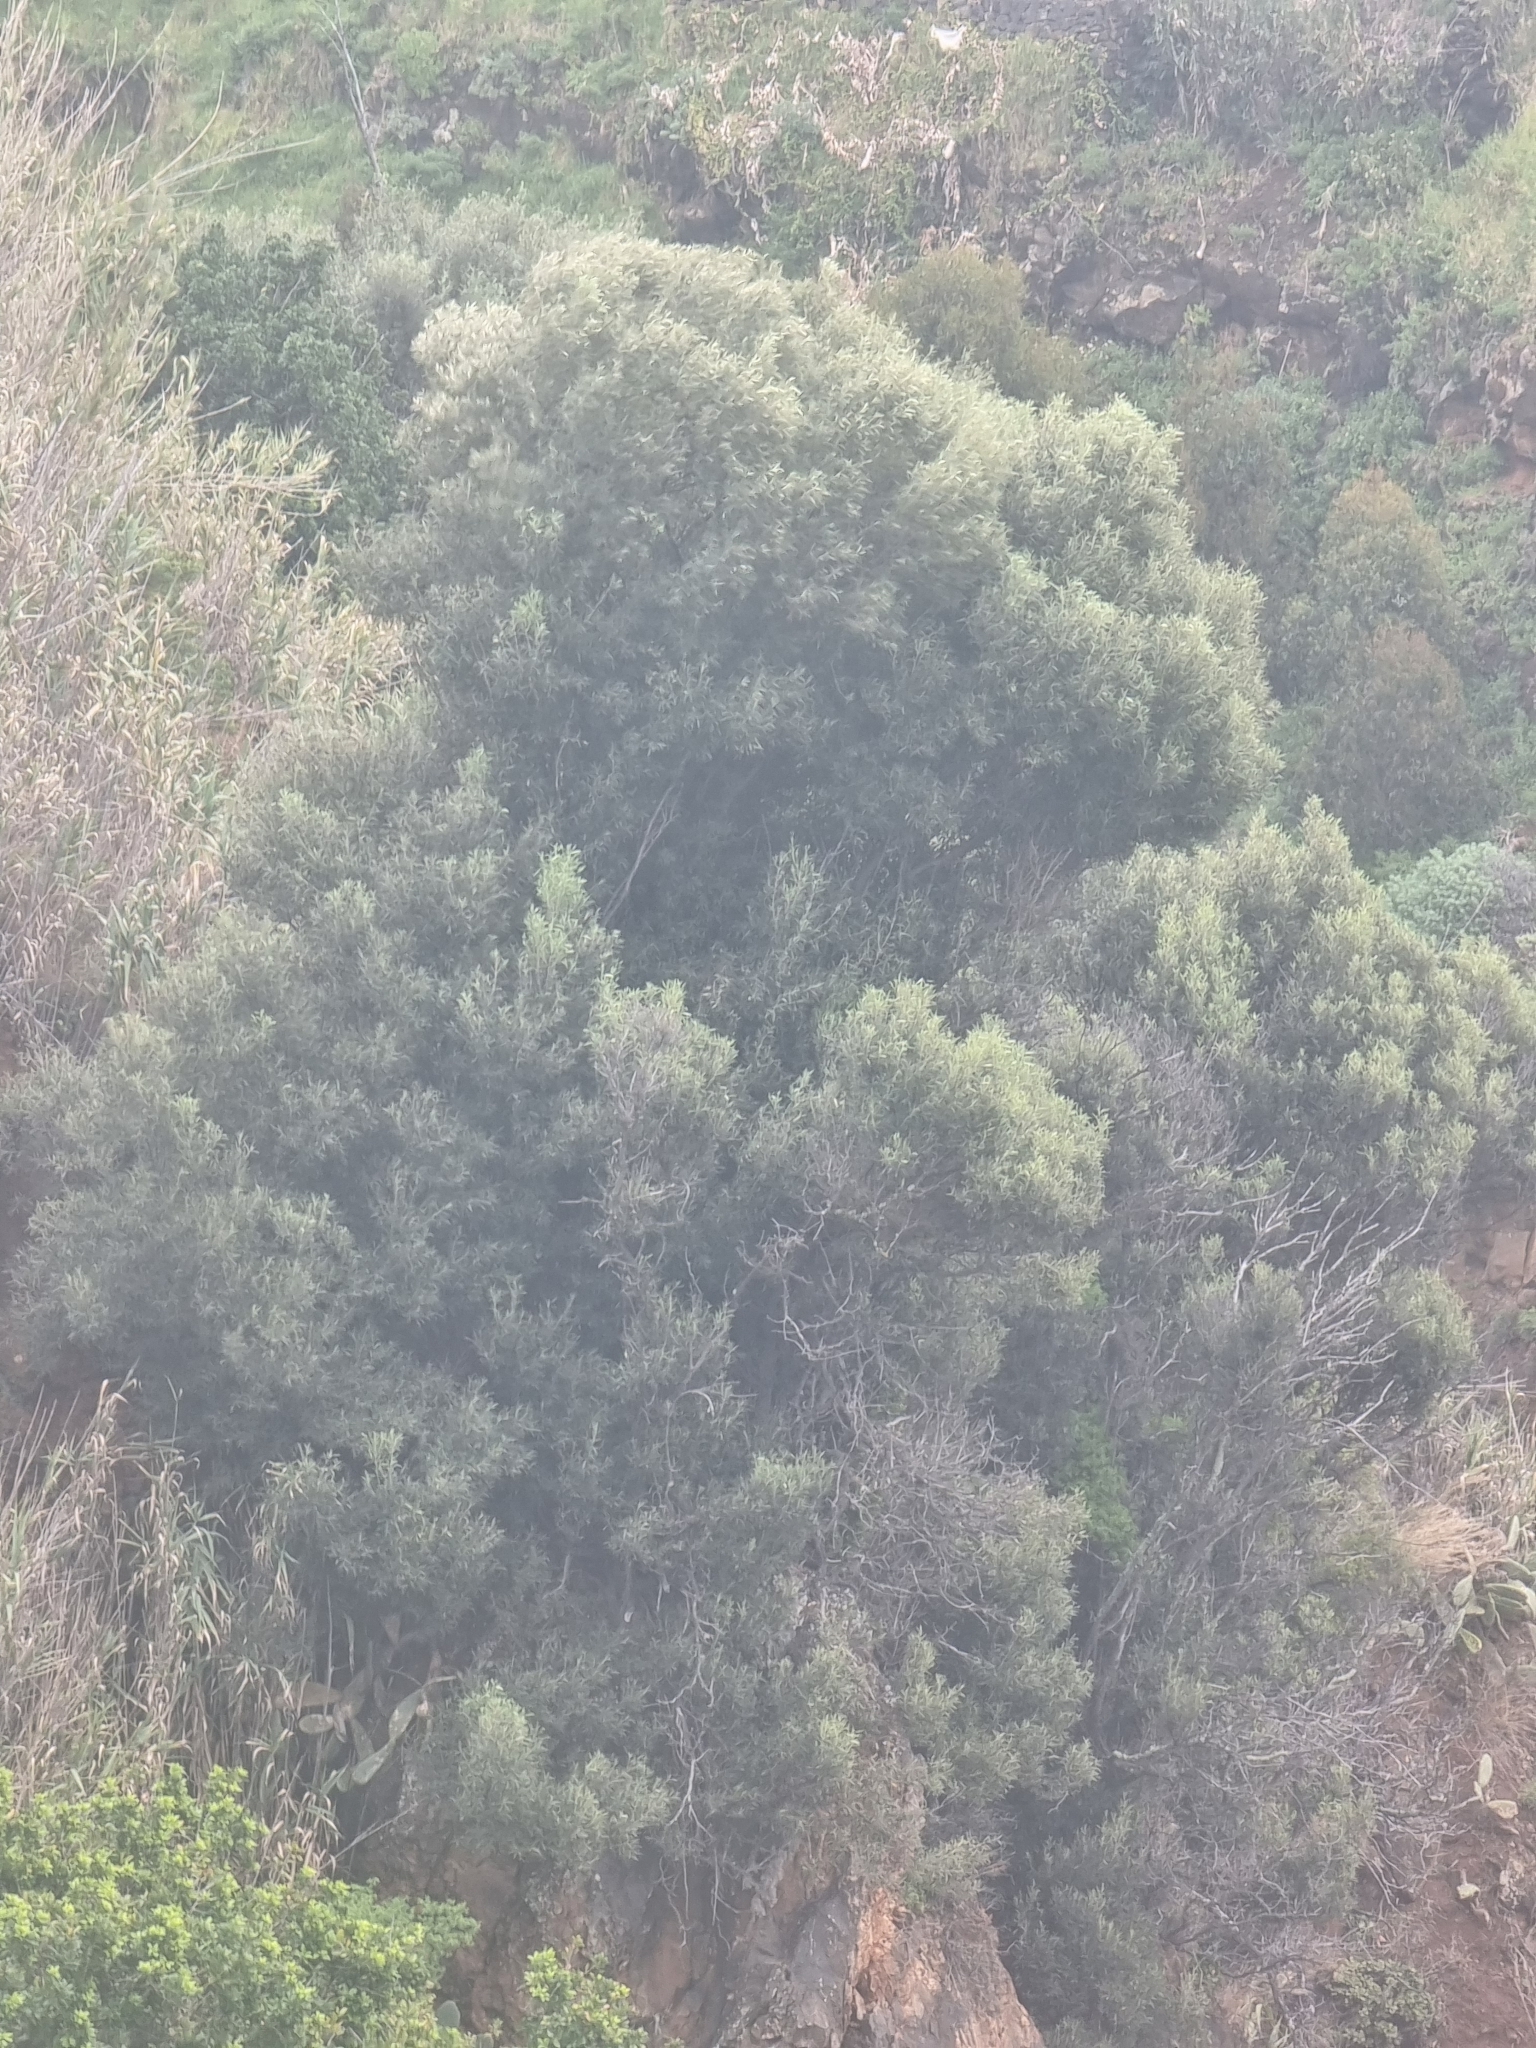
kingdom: Plantae
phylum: Tracheophyta
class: Magnoliopsida
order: Lamiales
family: Oleaceae
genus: Olea
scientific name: Olea europaea
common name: Olive
